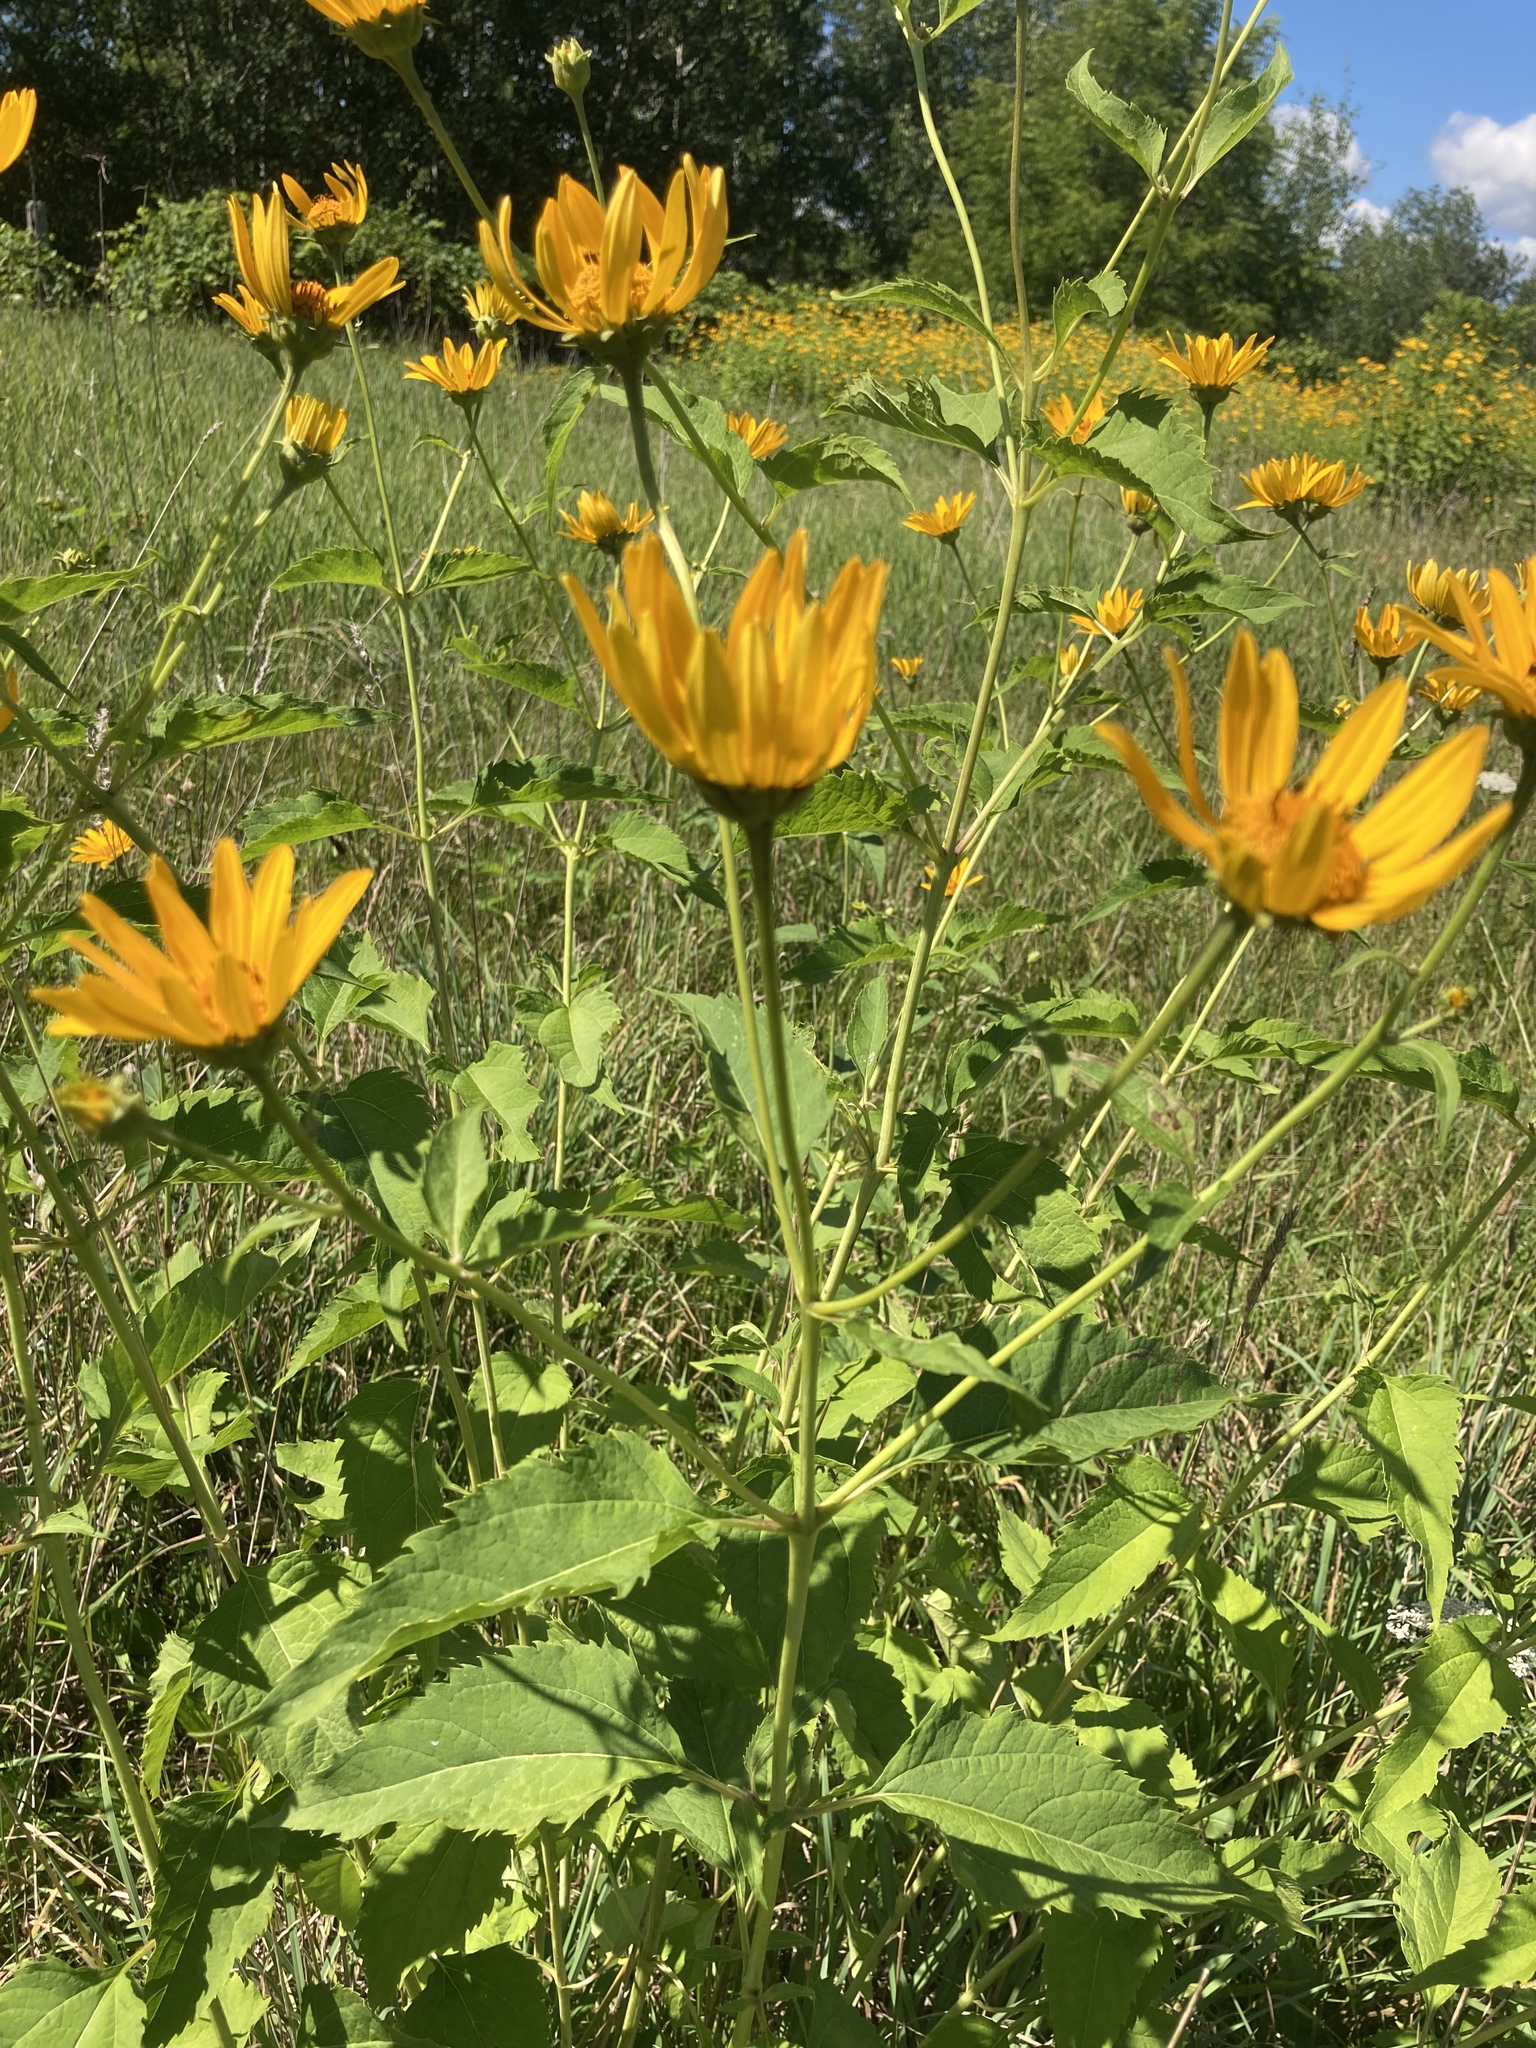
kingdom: Plantae
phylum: Tracheophyta
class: Magnoliopsida
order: Asterales
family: Asteraceae
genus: Heliopsis
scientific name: Heliopsis helianthoides
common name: False sunflower
